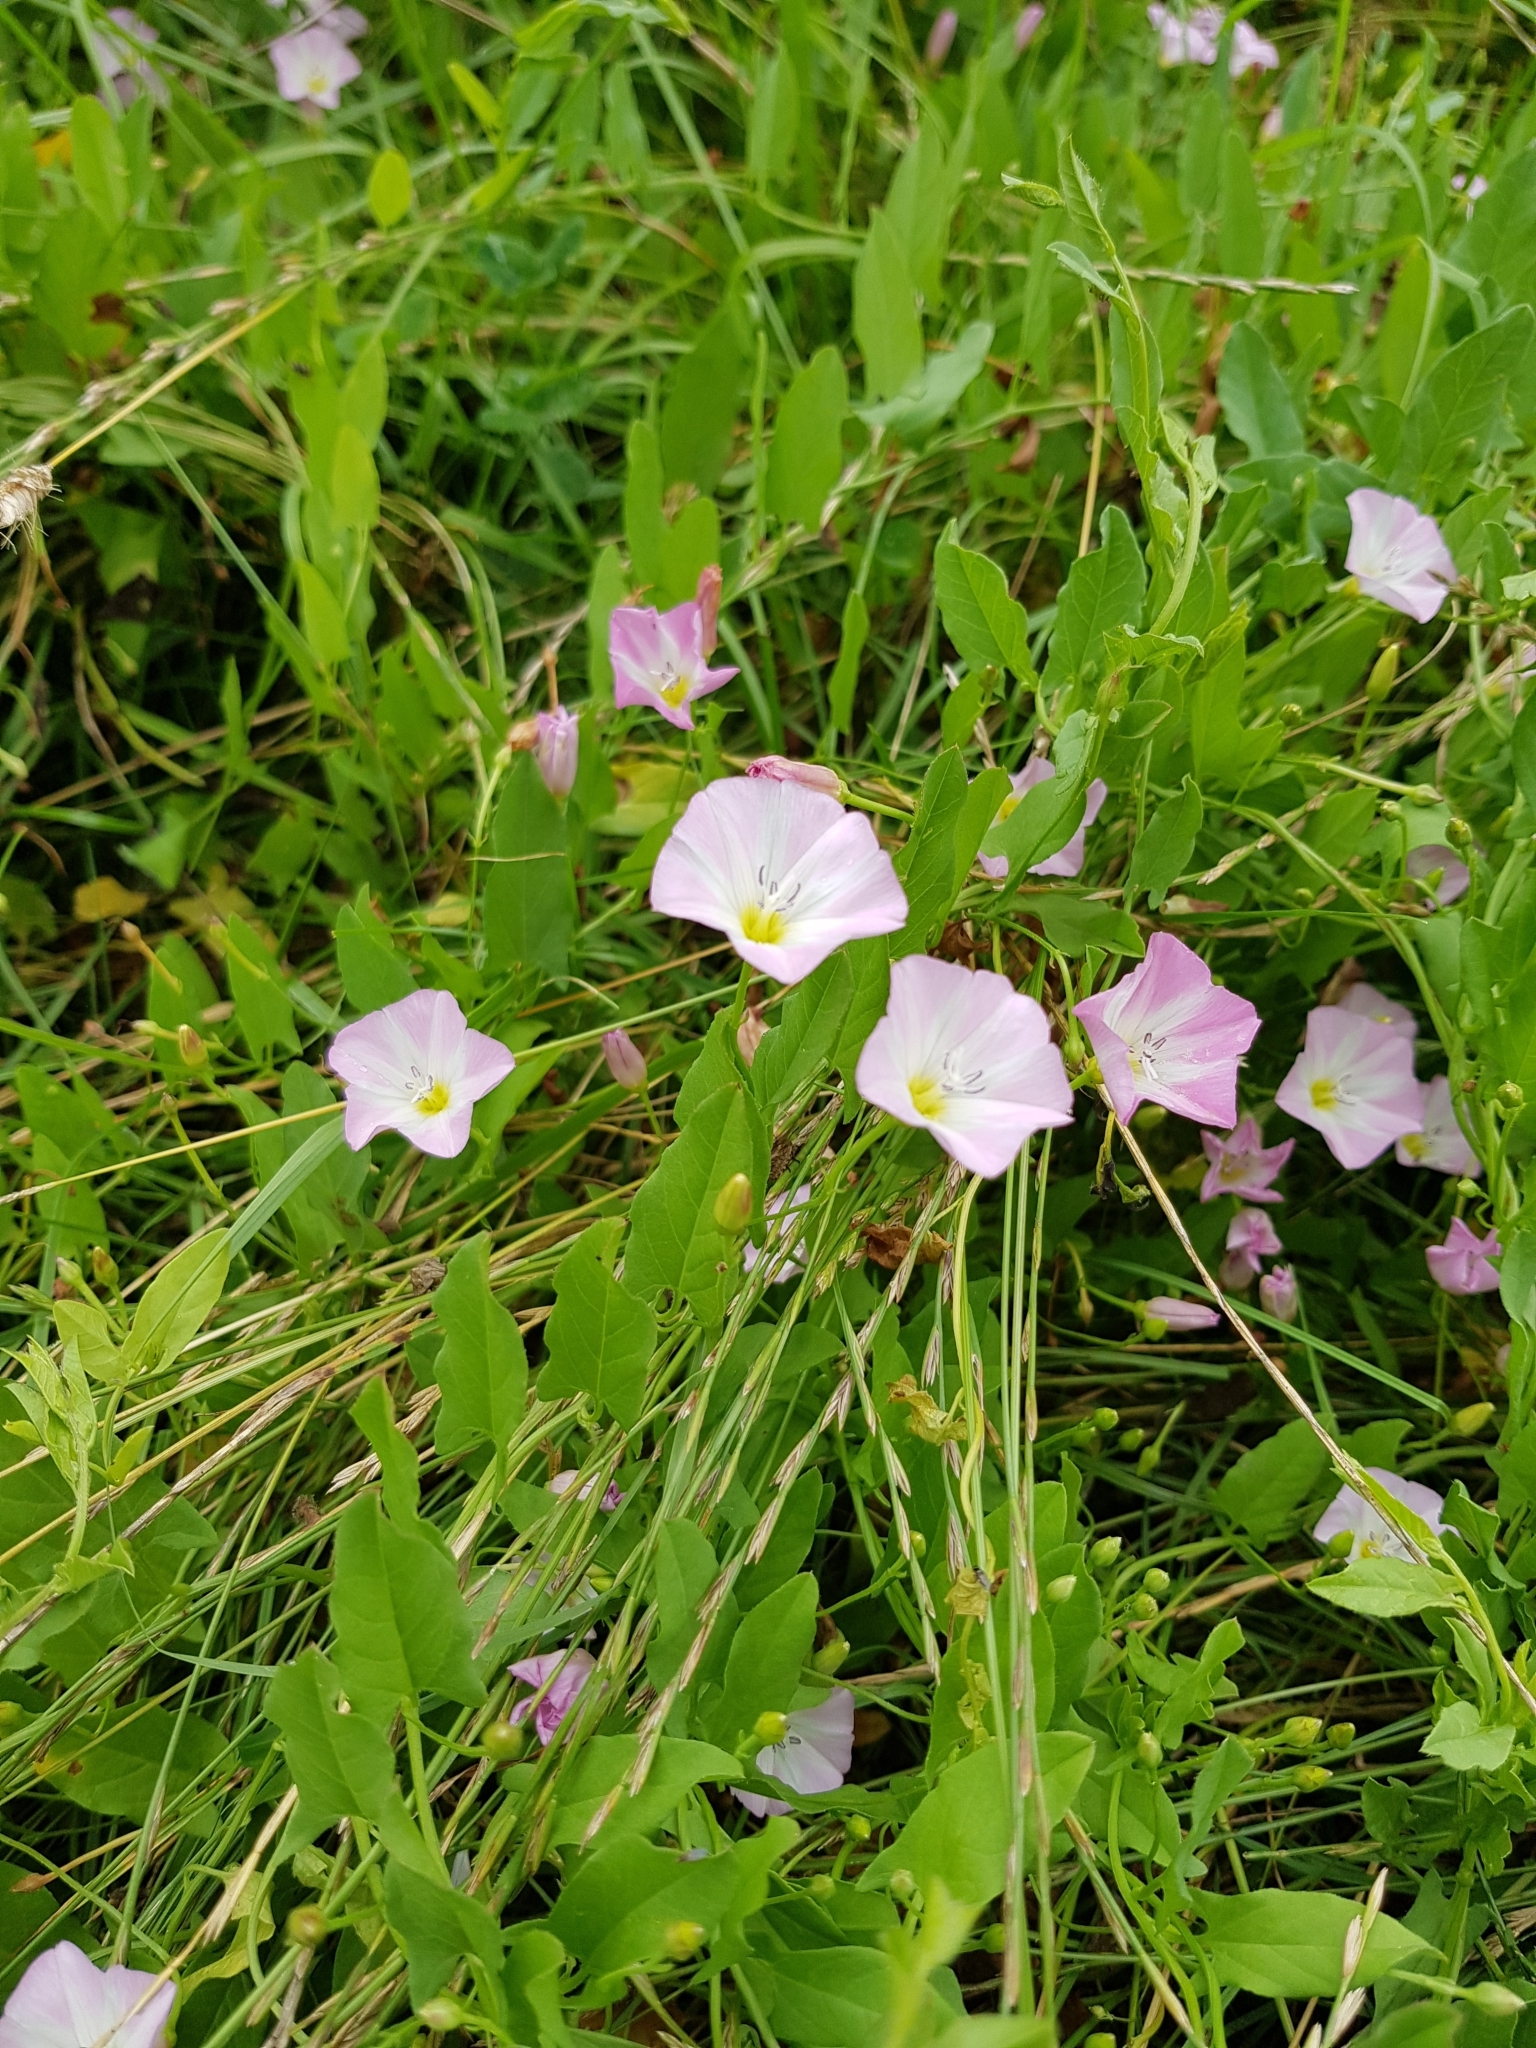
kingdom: Plantae
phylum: Tracheophyta
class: Magnoliopsida
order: Solanales
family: Convolvulaceae
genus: Convolvulus
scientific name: Convolvulus arvensis
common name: Field bindweed
